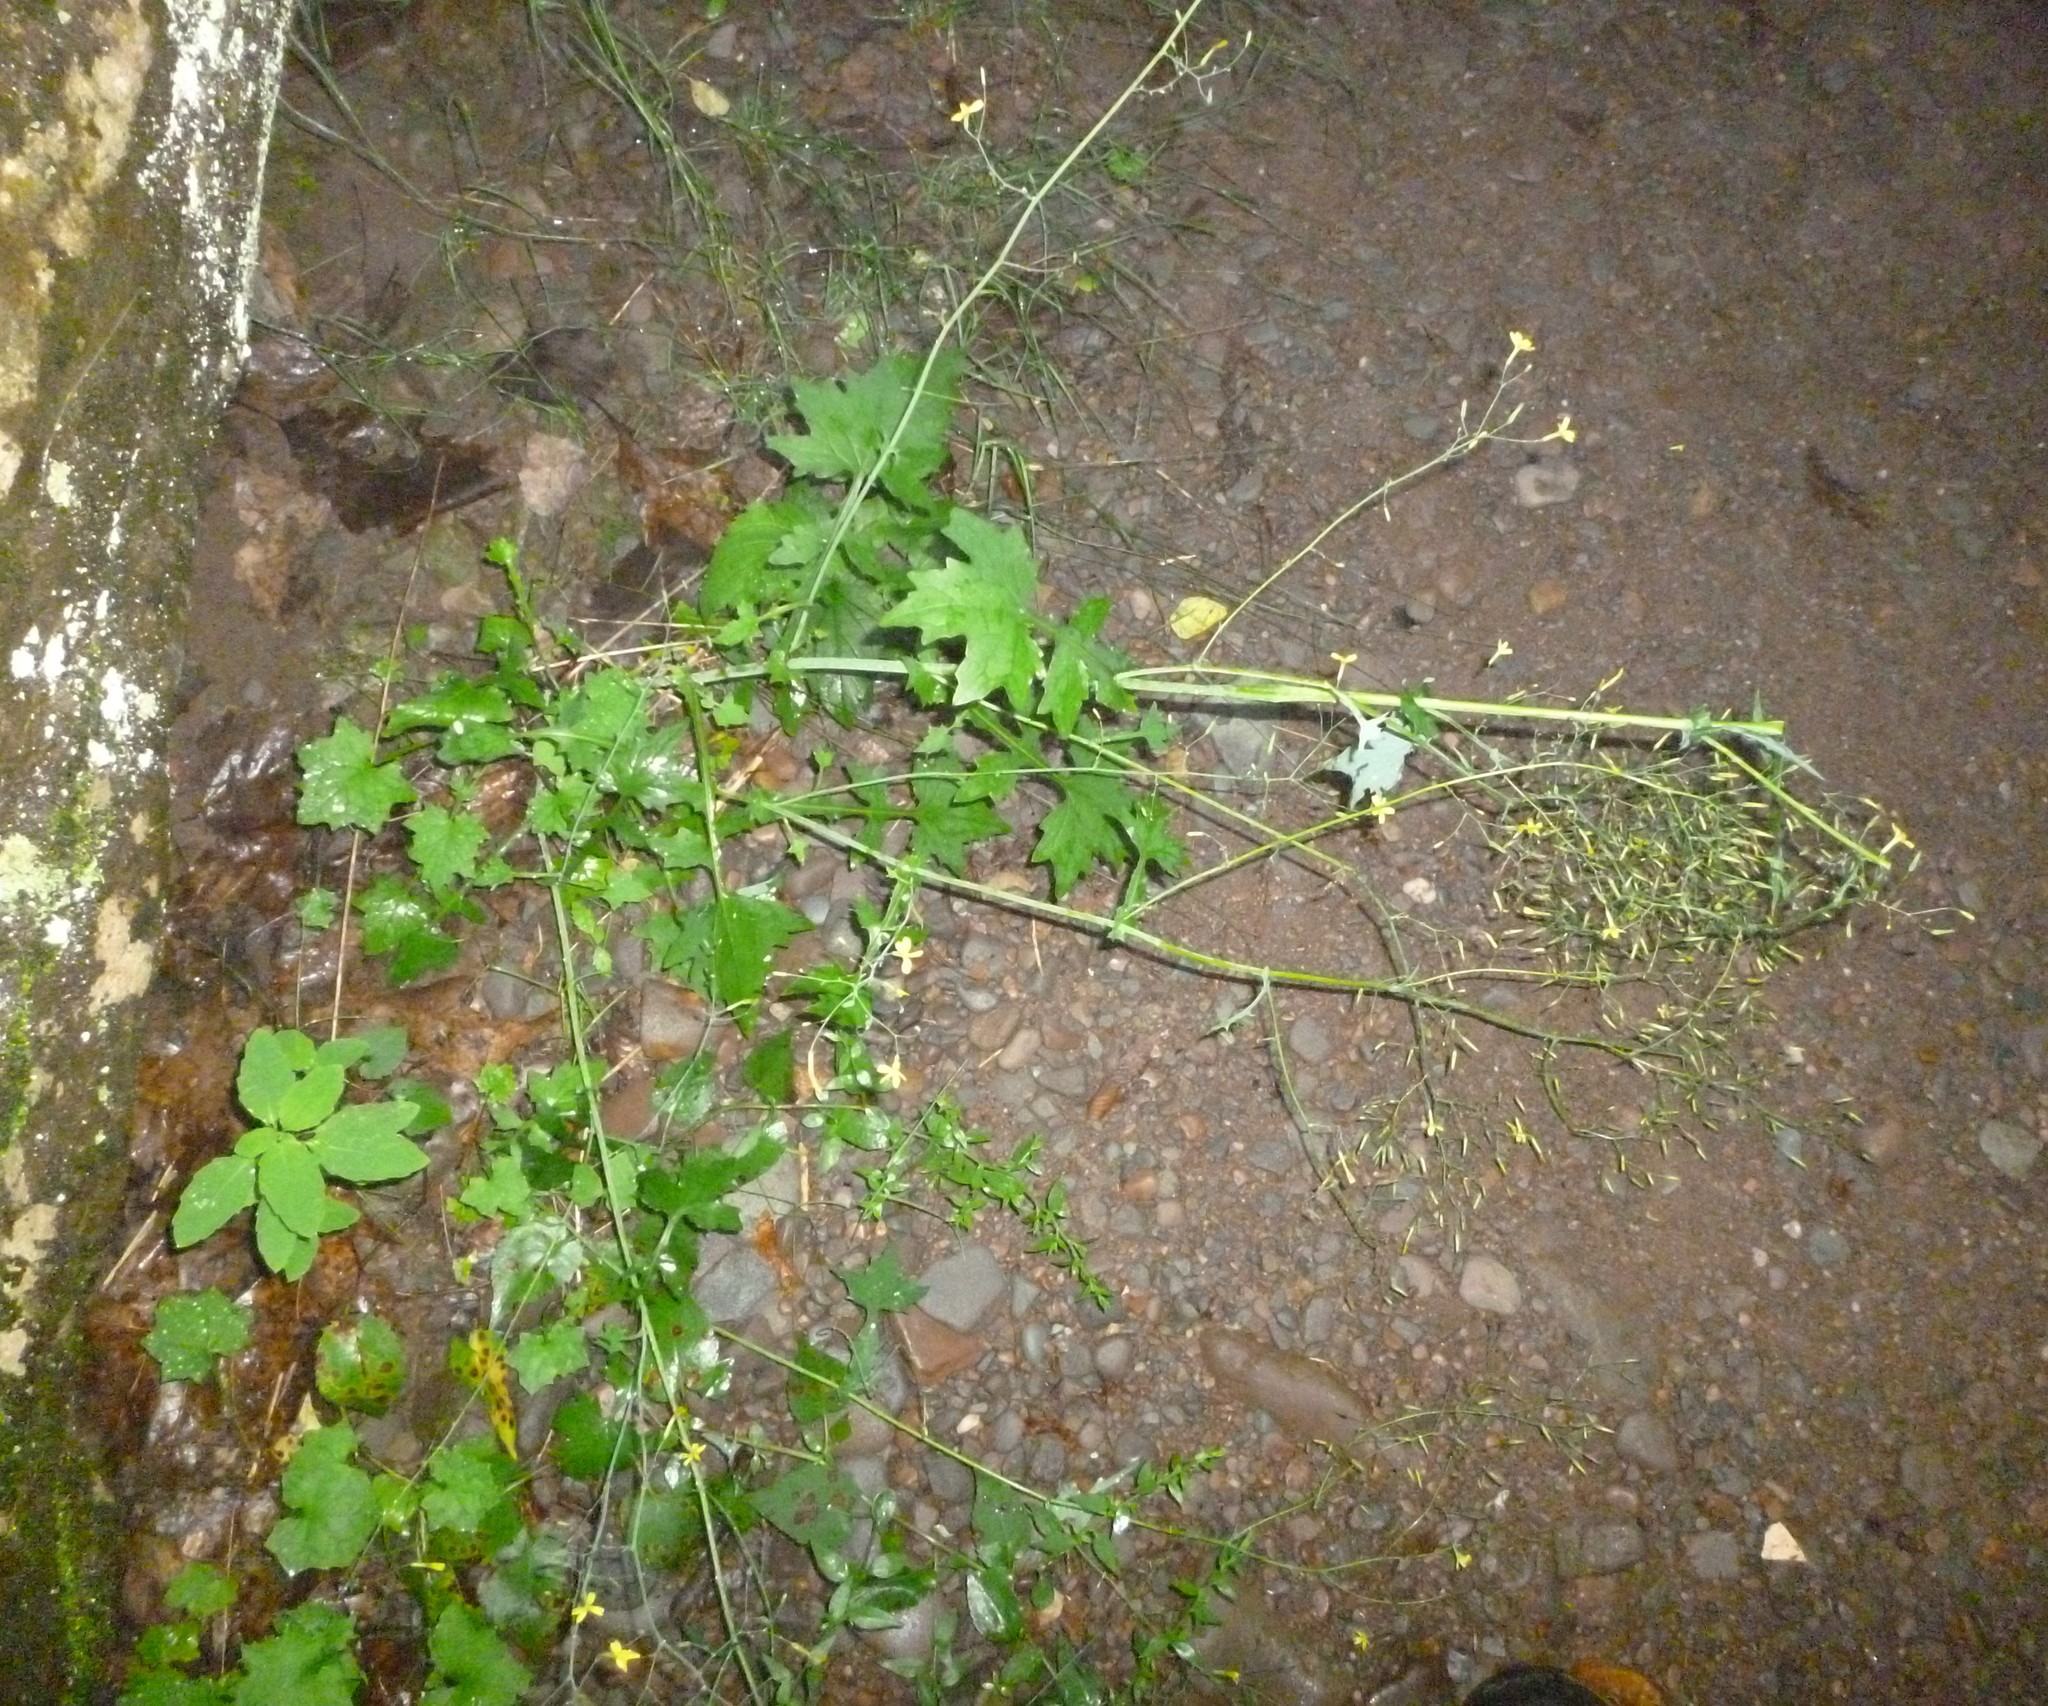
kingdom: Plantae
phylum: Tracheophyta
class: Magnoliopsida
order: Asterales
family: Asteraceae
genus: Mycelis
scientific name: Mycelis muralis
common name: Wall lettuce
